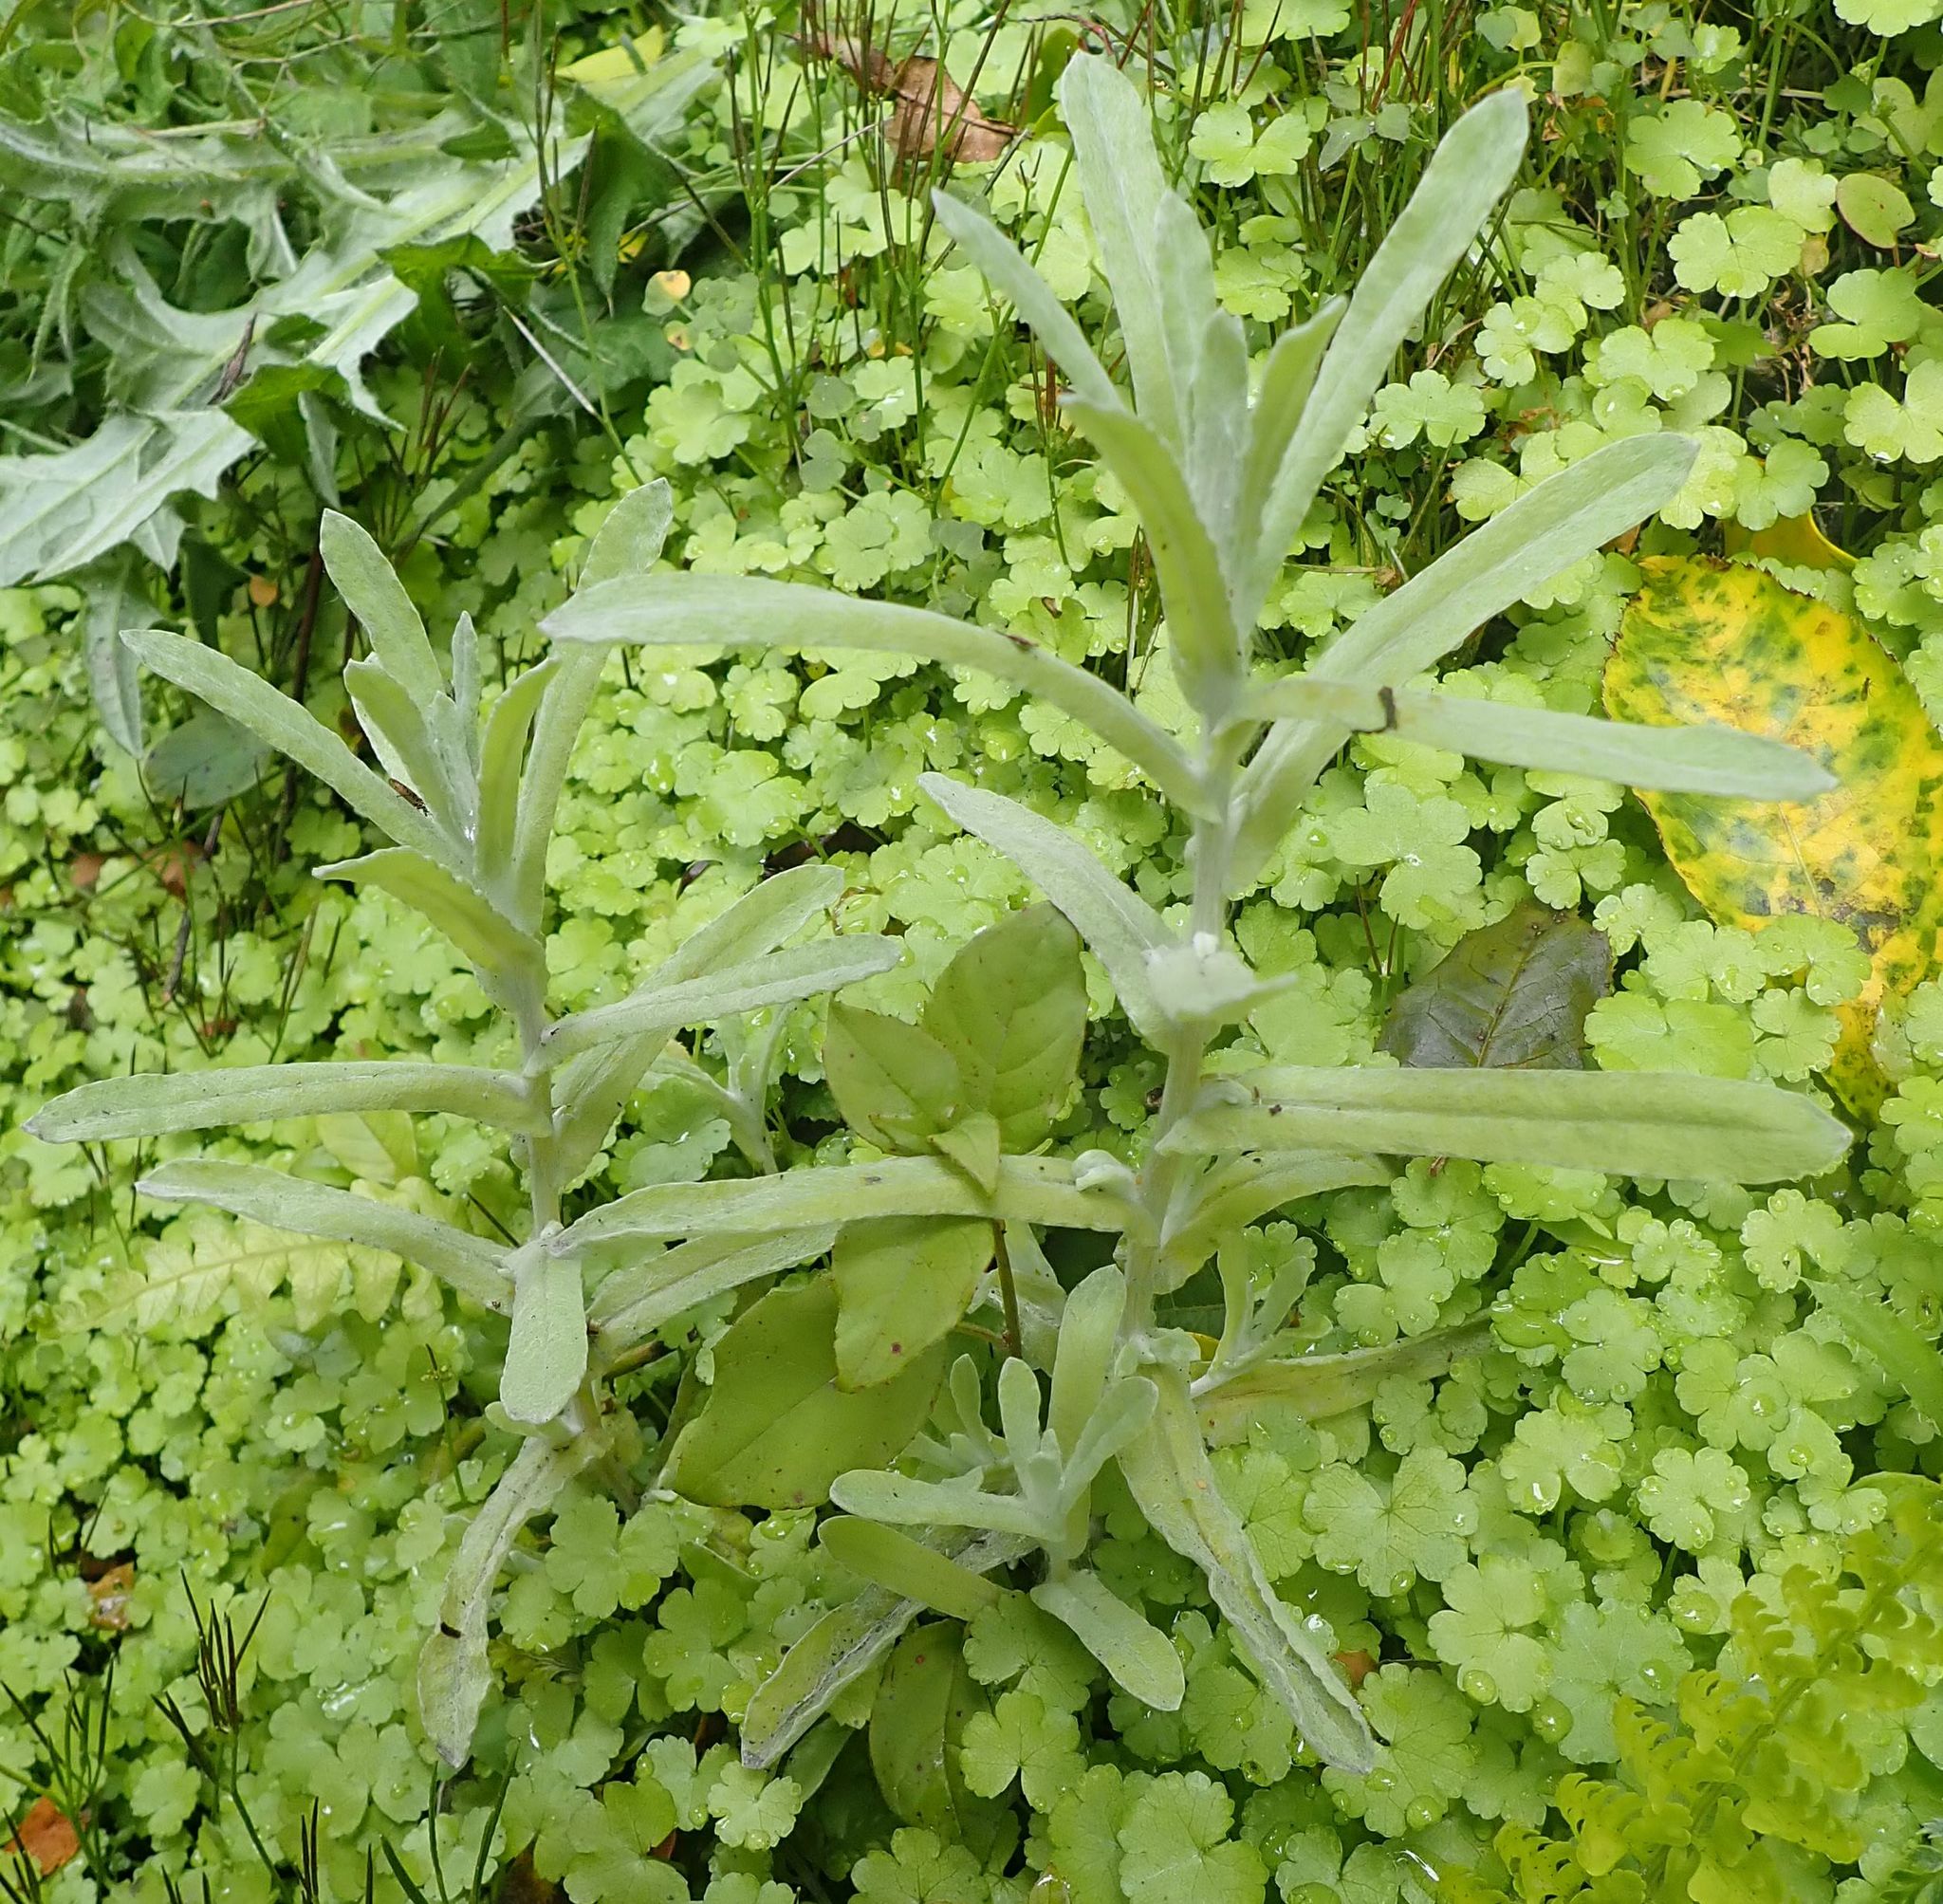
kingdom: Plantae
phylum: Tracheophyta
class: Magnoliopsida
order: Asterales
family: Asteraceae
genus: Helichrysum
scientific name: Helichrysum luteoalbum
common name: Daisy
